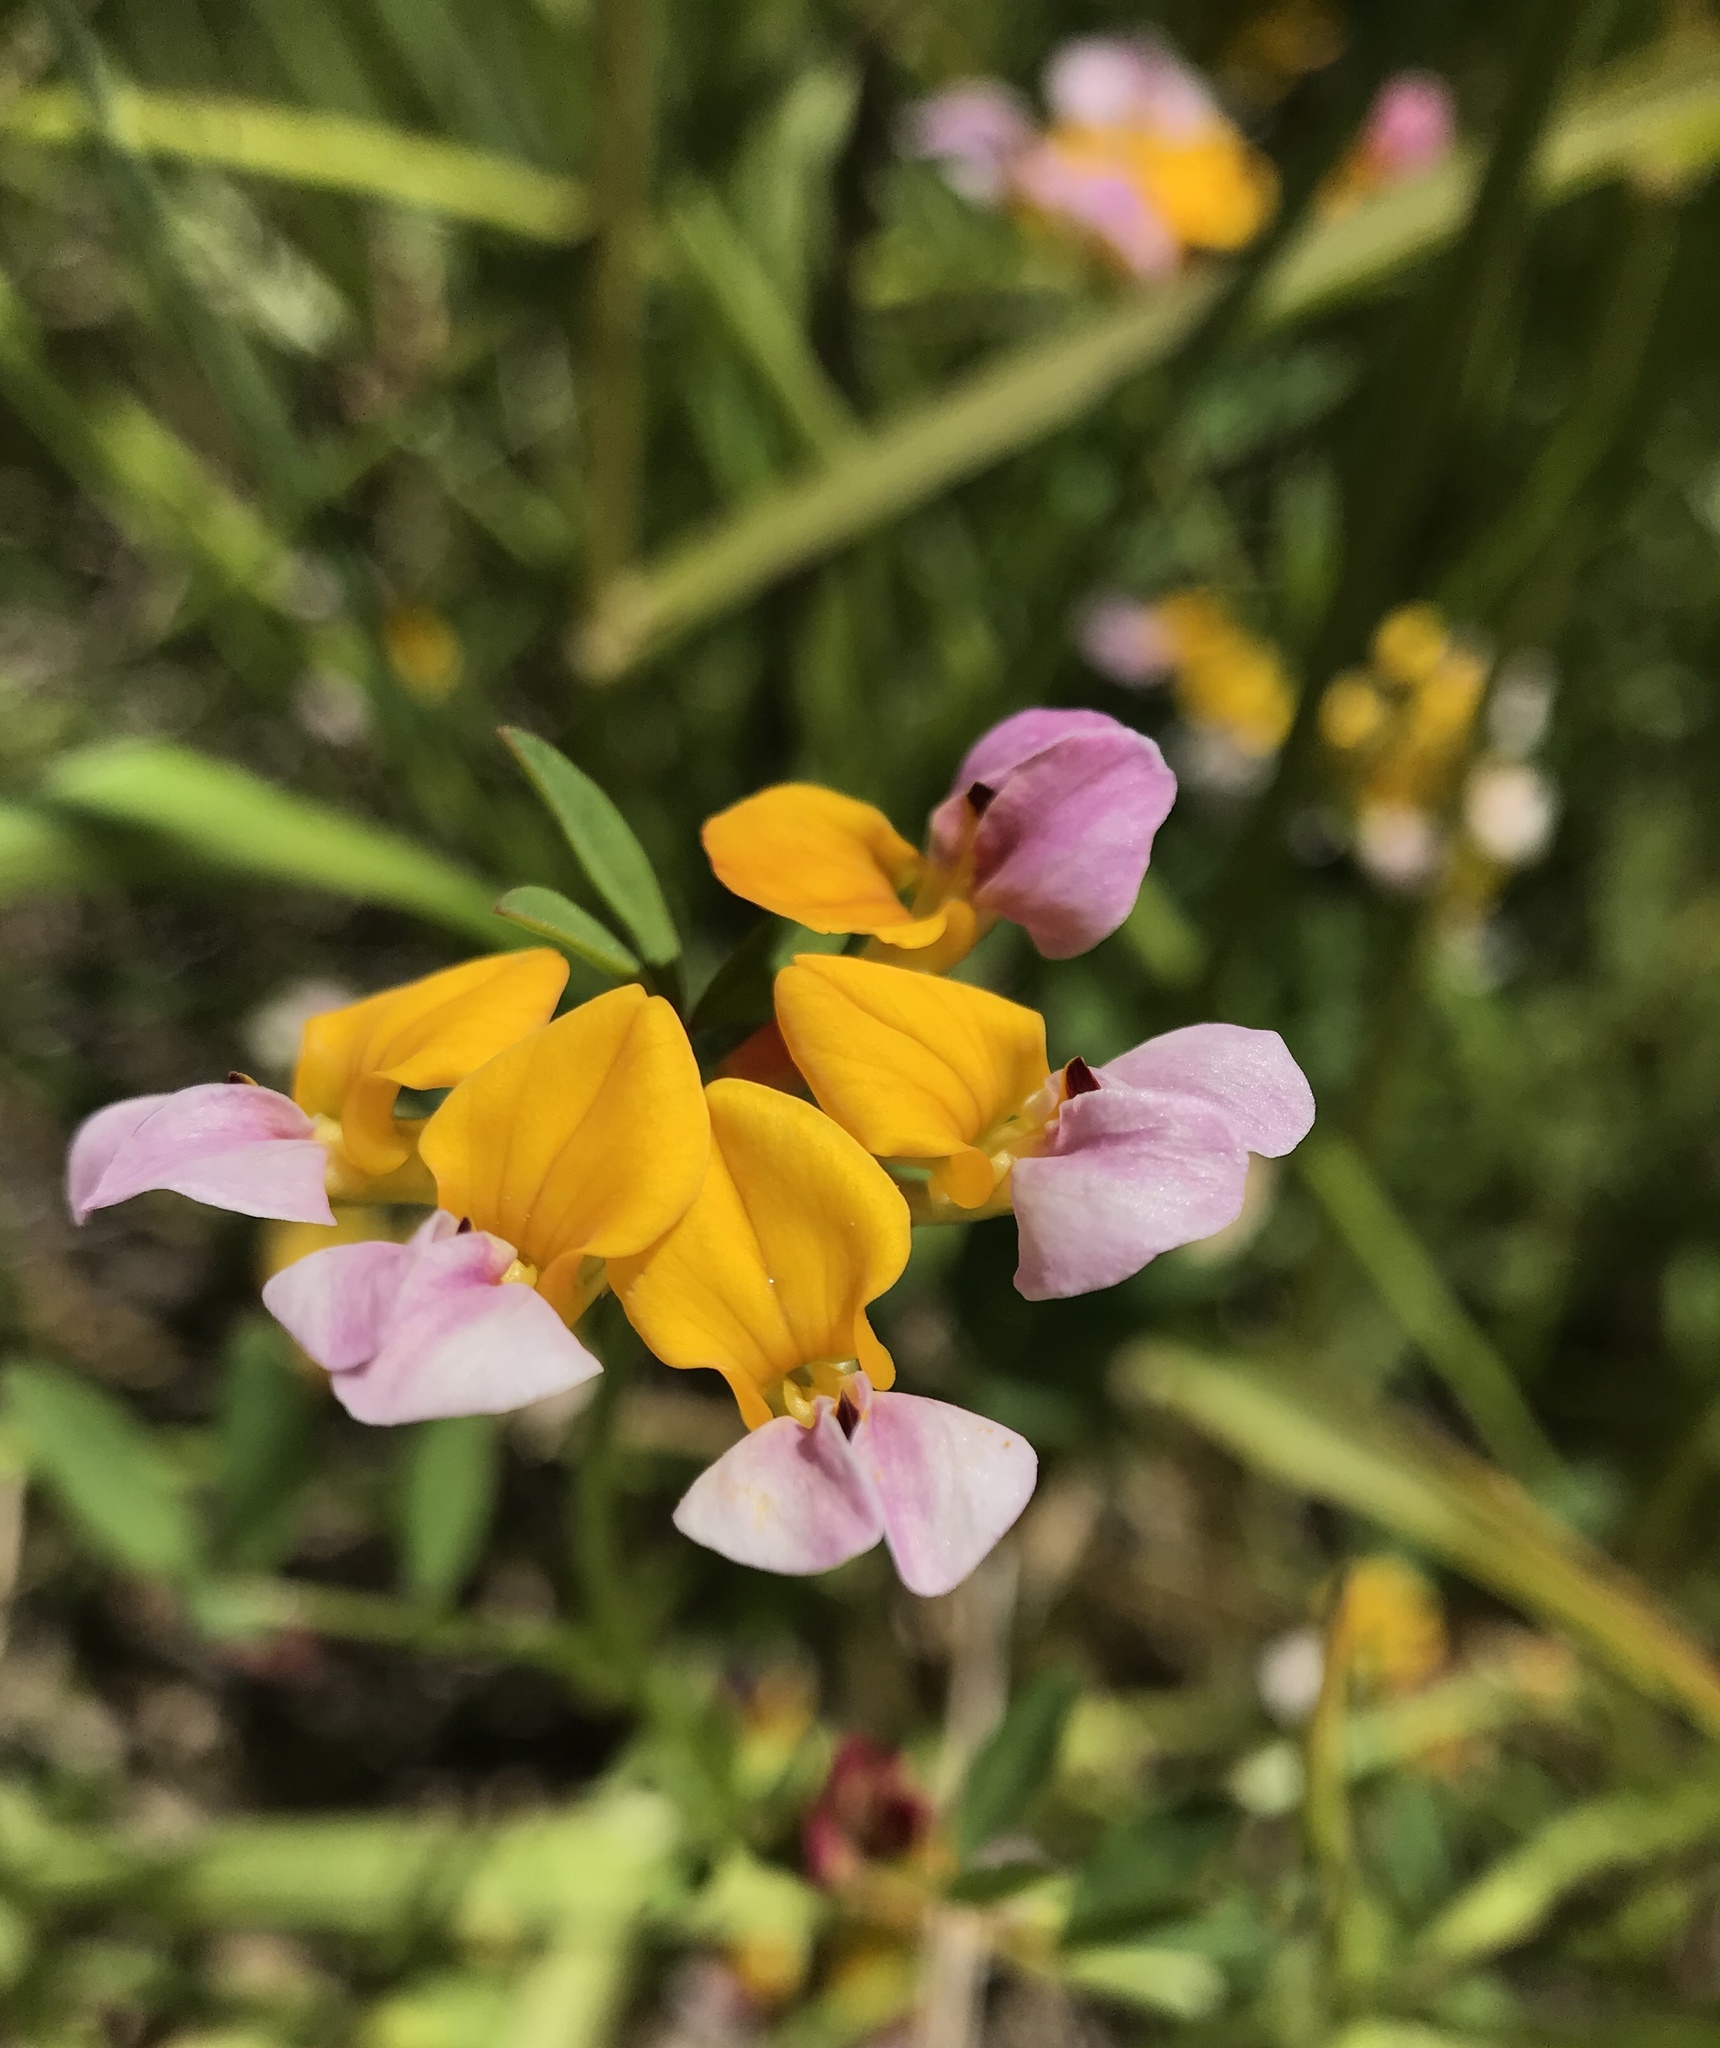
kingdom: Plantae
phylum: Tracheophyta
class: Magnoliopsida
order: Fabales
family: Fabaceae
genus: Hosackia
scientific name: Hosackia gracilis
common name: Seaside bird's-foot lotus
